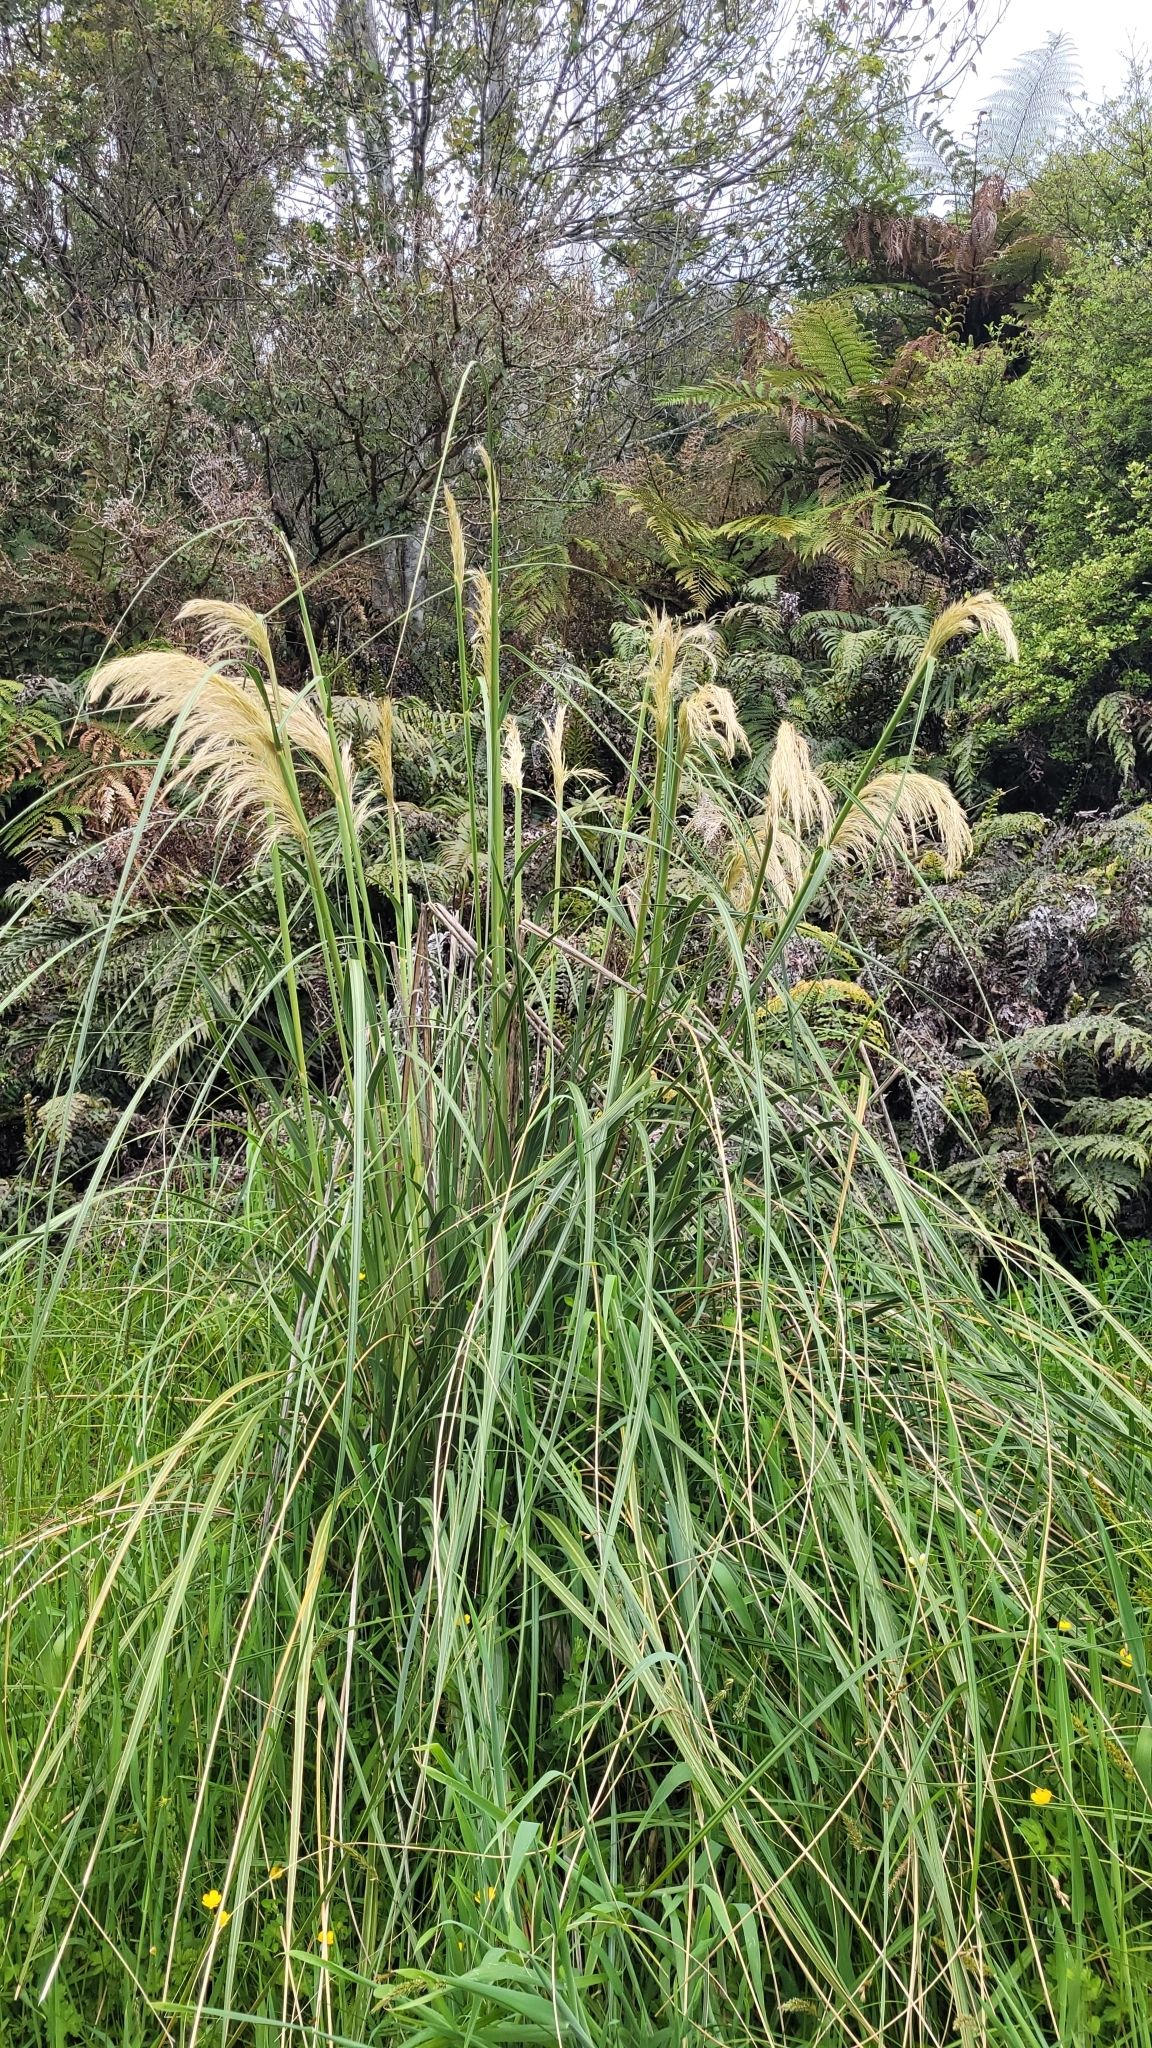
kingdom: Plantae
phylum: Tracheophyta
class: Liliopsida
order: Poales
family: Poaceae
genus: Austroderia
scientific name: Austroderia richardii
